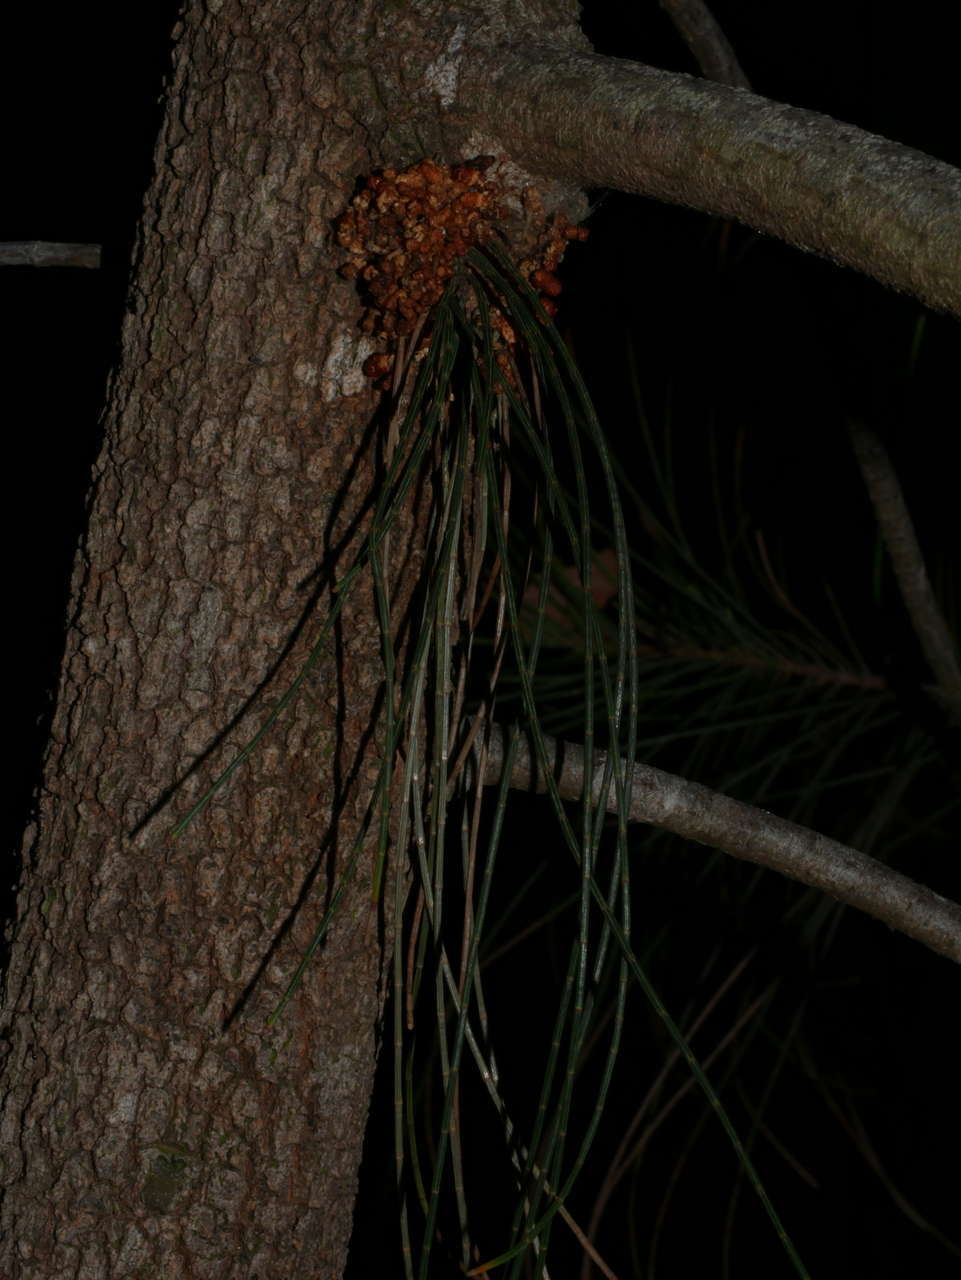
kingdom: Animalia
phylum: Arthropoda
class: Insecta
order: Lepidoptera
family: Xyloryctidae
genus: Cryptophasa
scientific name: Cryptophasa irrorata
